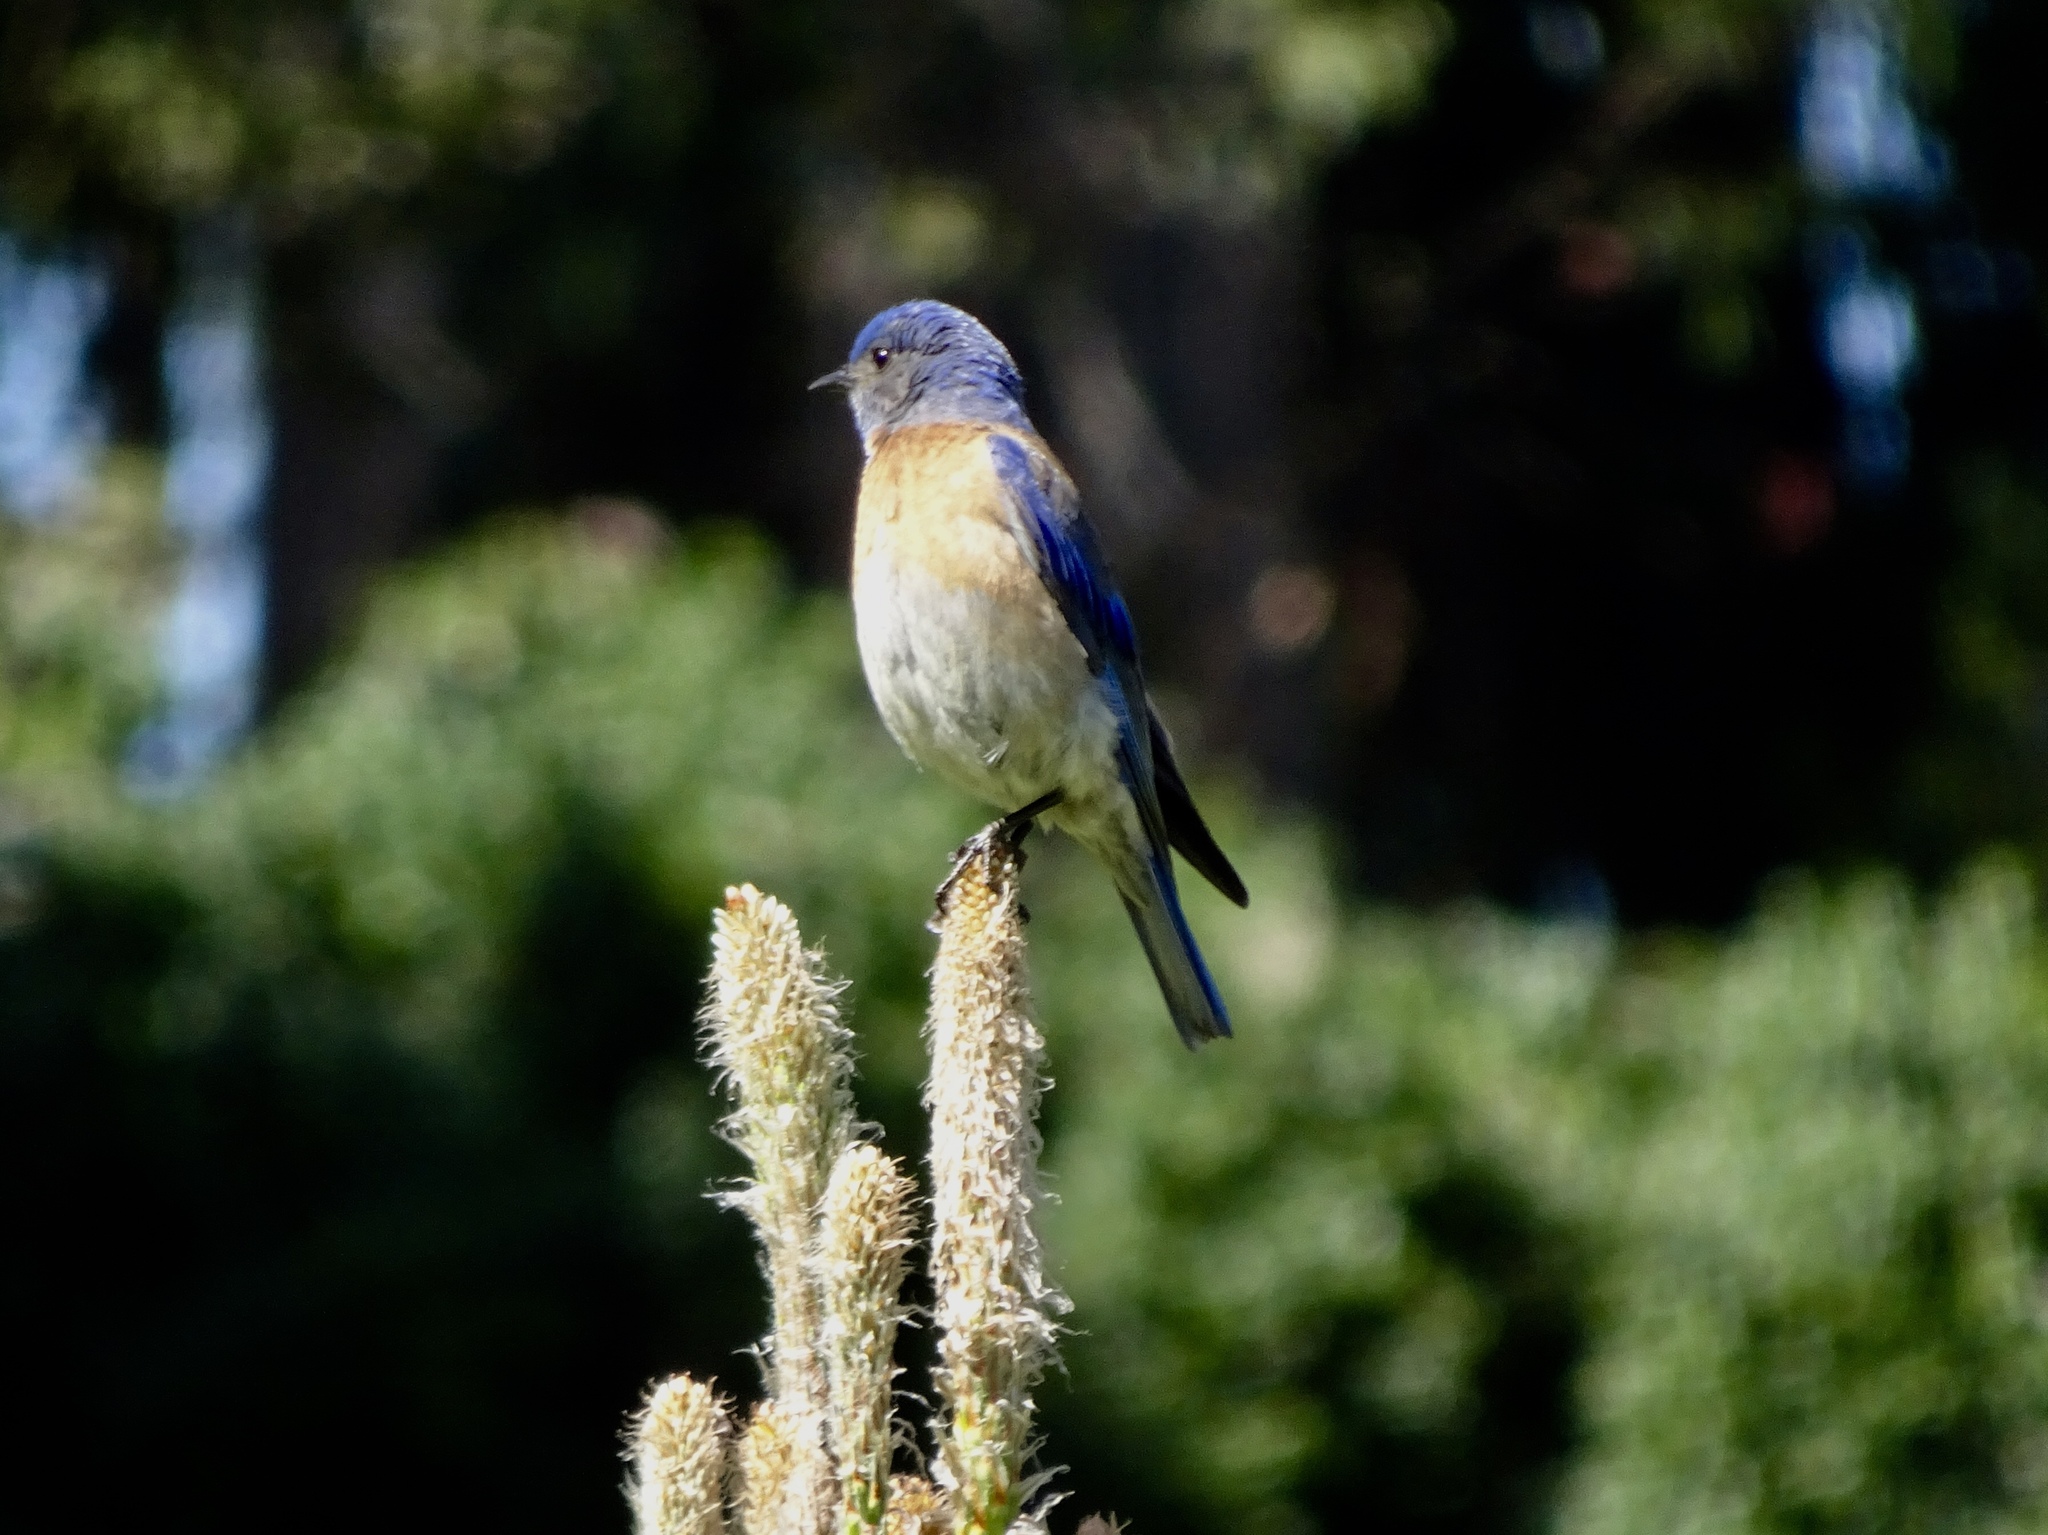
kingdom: Animalia
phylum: Chordata
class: Aves
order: Passeriformes
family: Turdidae
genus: Sialia
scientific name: Sialia mexicana
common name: Western bluebird
